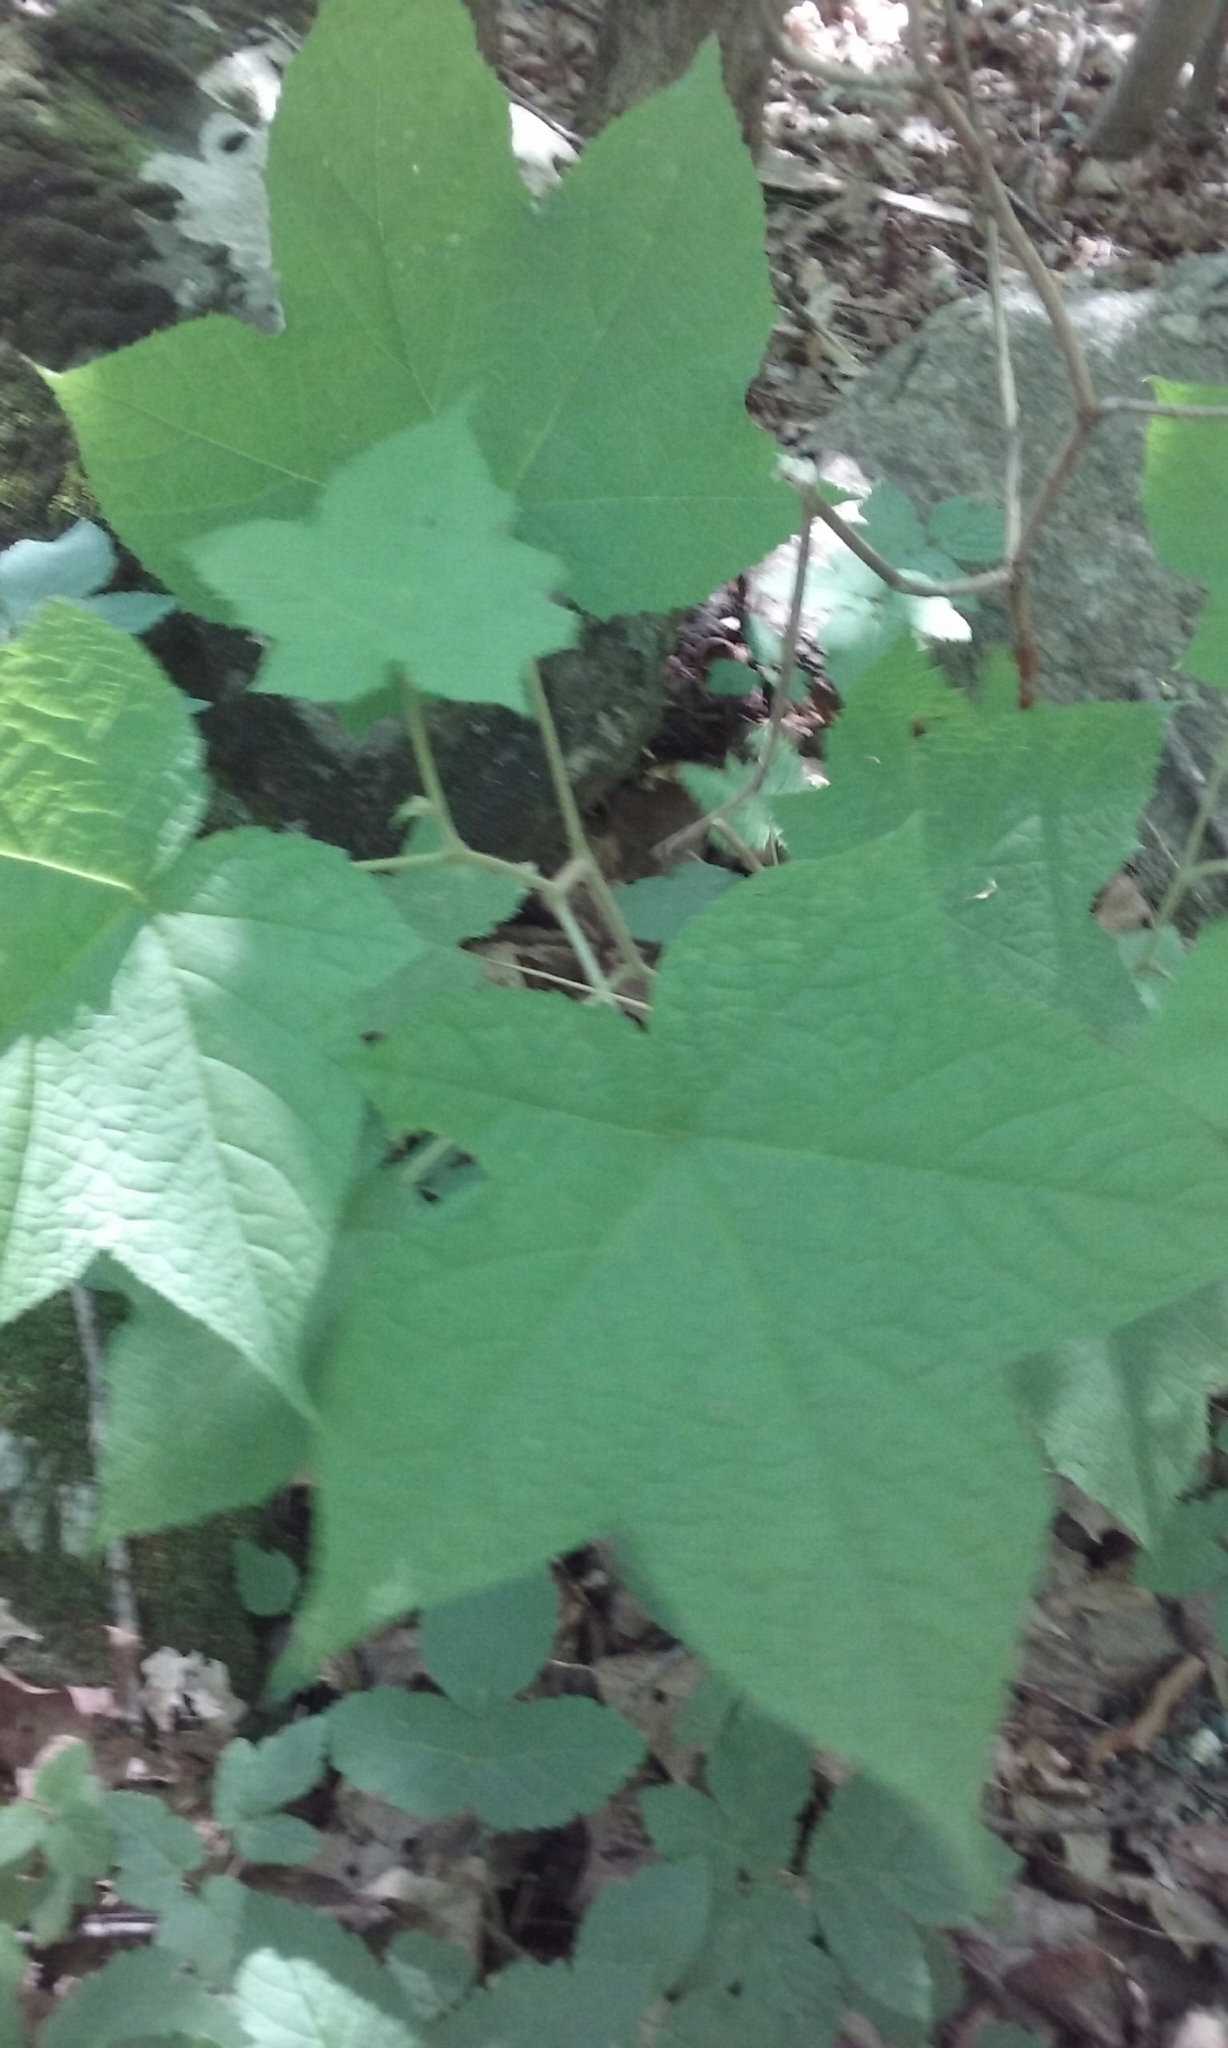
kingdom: Plantae
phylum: Tracheophyta
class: Magnoliopsida
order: Rosales
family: Rosaceae
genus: Rubus
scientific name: Rubus odoratus
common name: Purple-flowered raspberry
